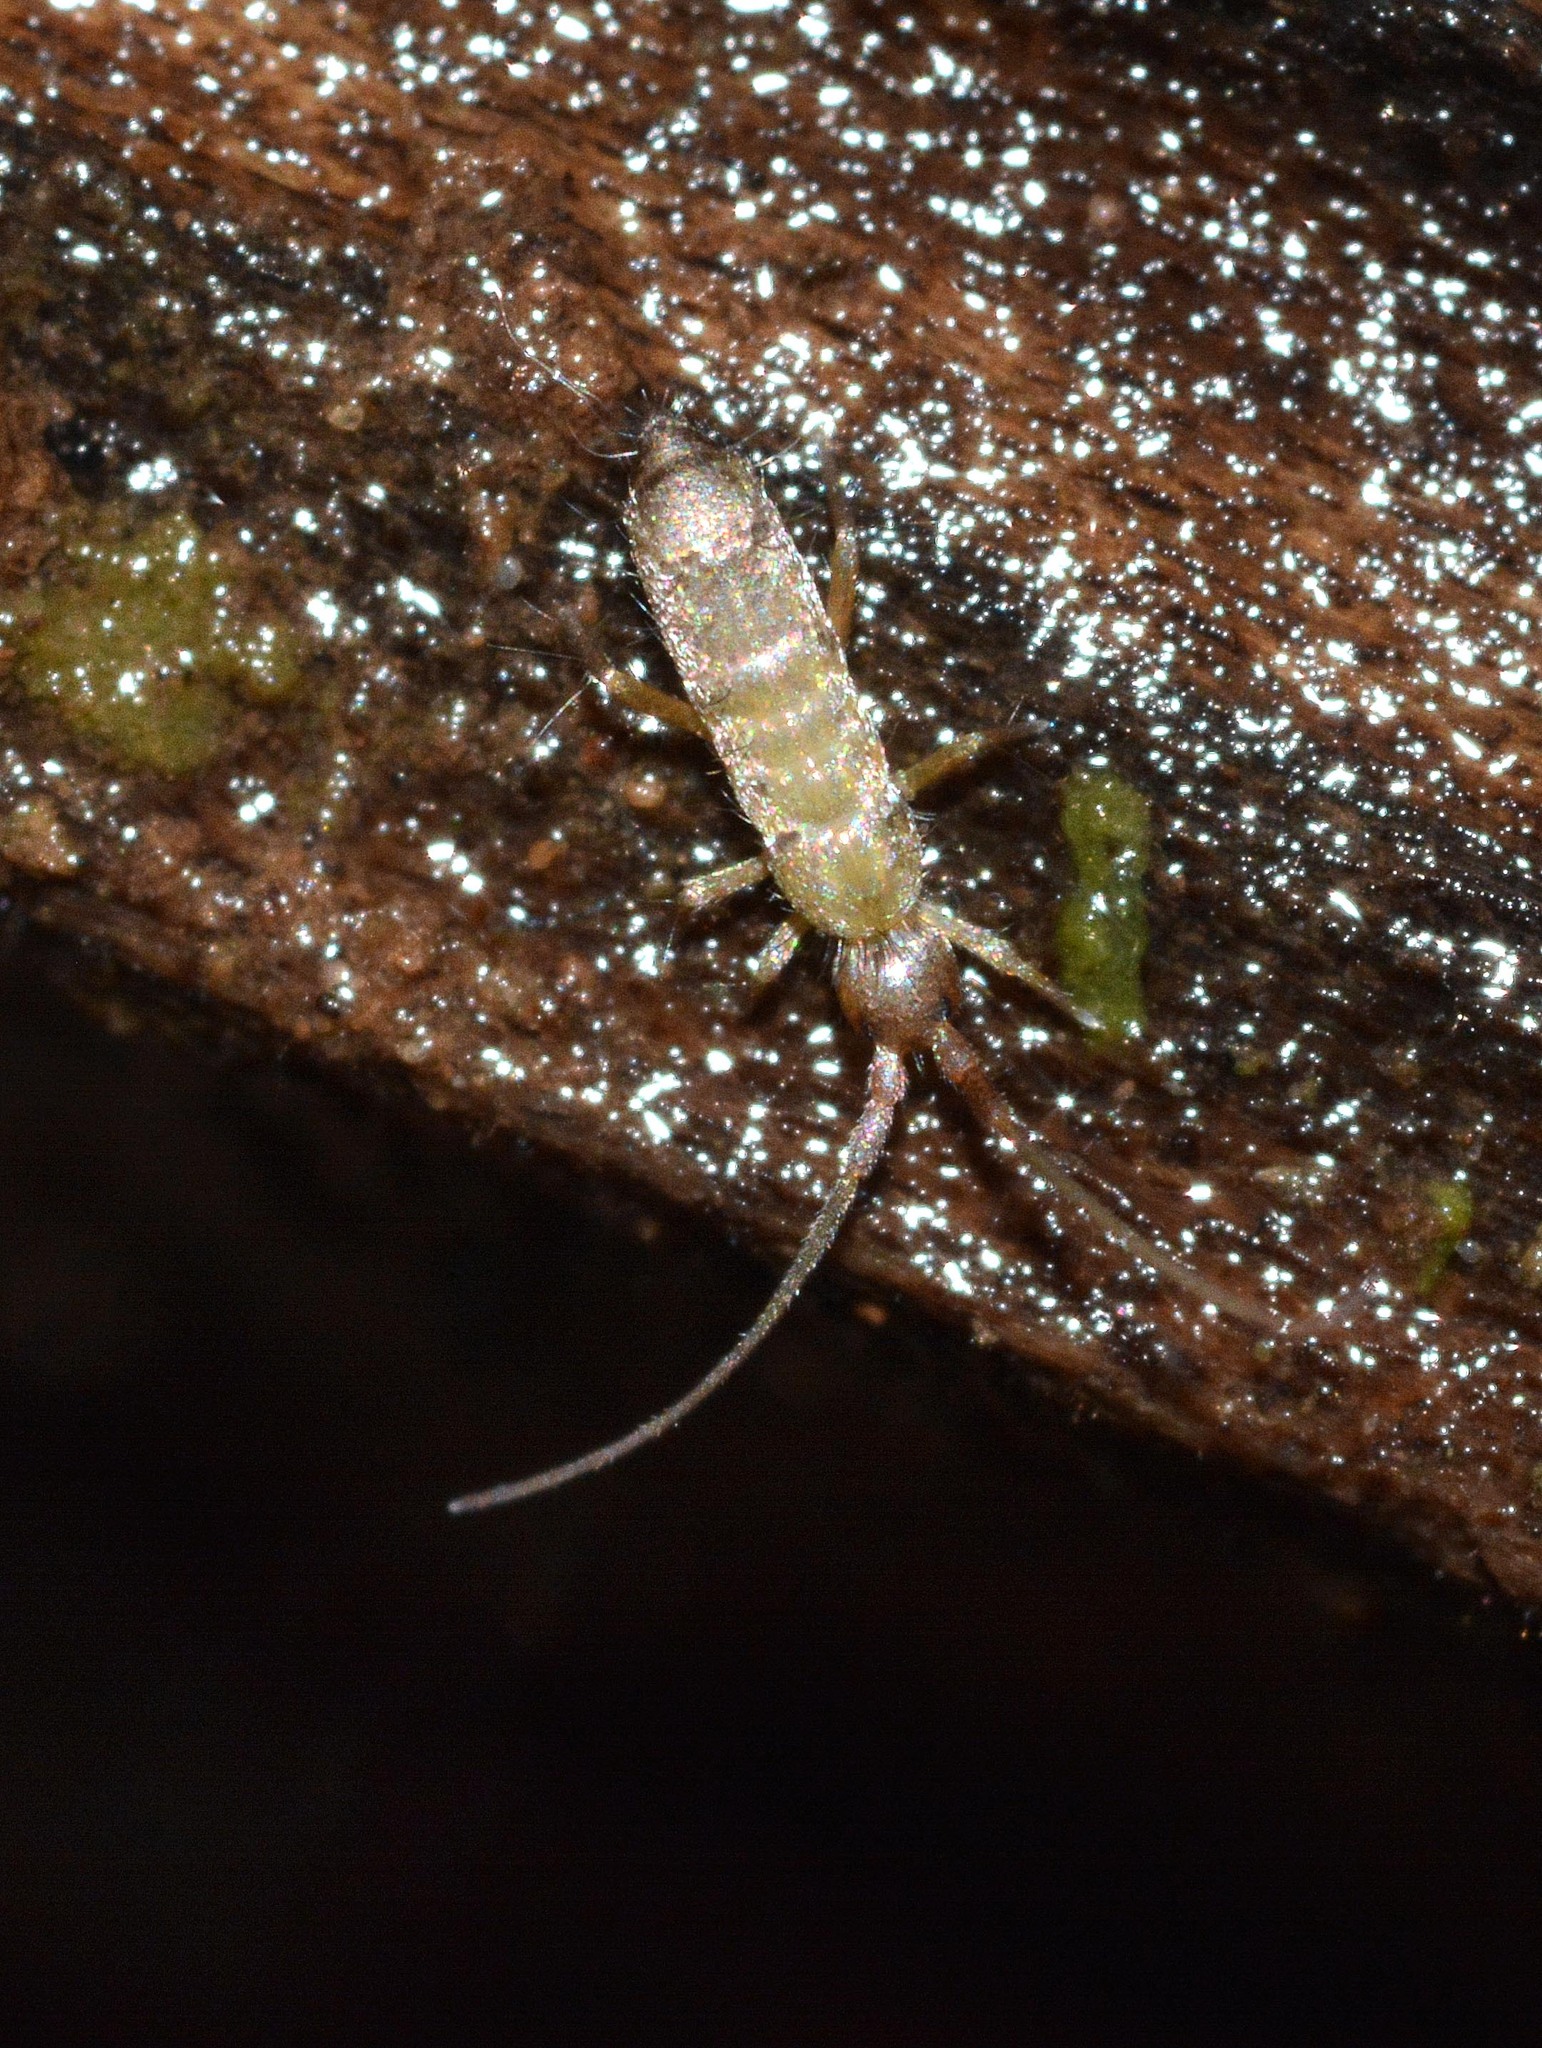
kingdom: Animalia
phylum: Arthropoda
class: Collembola
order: Entomobryomorpha
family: Tomoceridae
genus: Pogonognathellus
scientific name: Pogonognathellus longicornis
